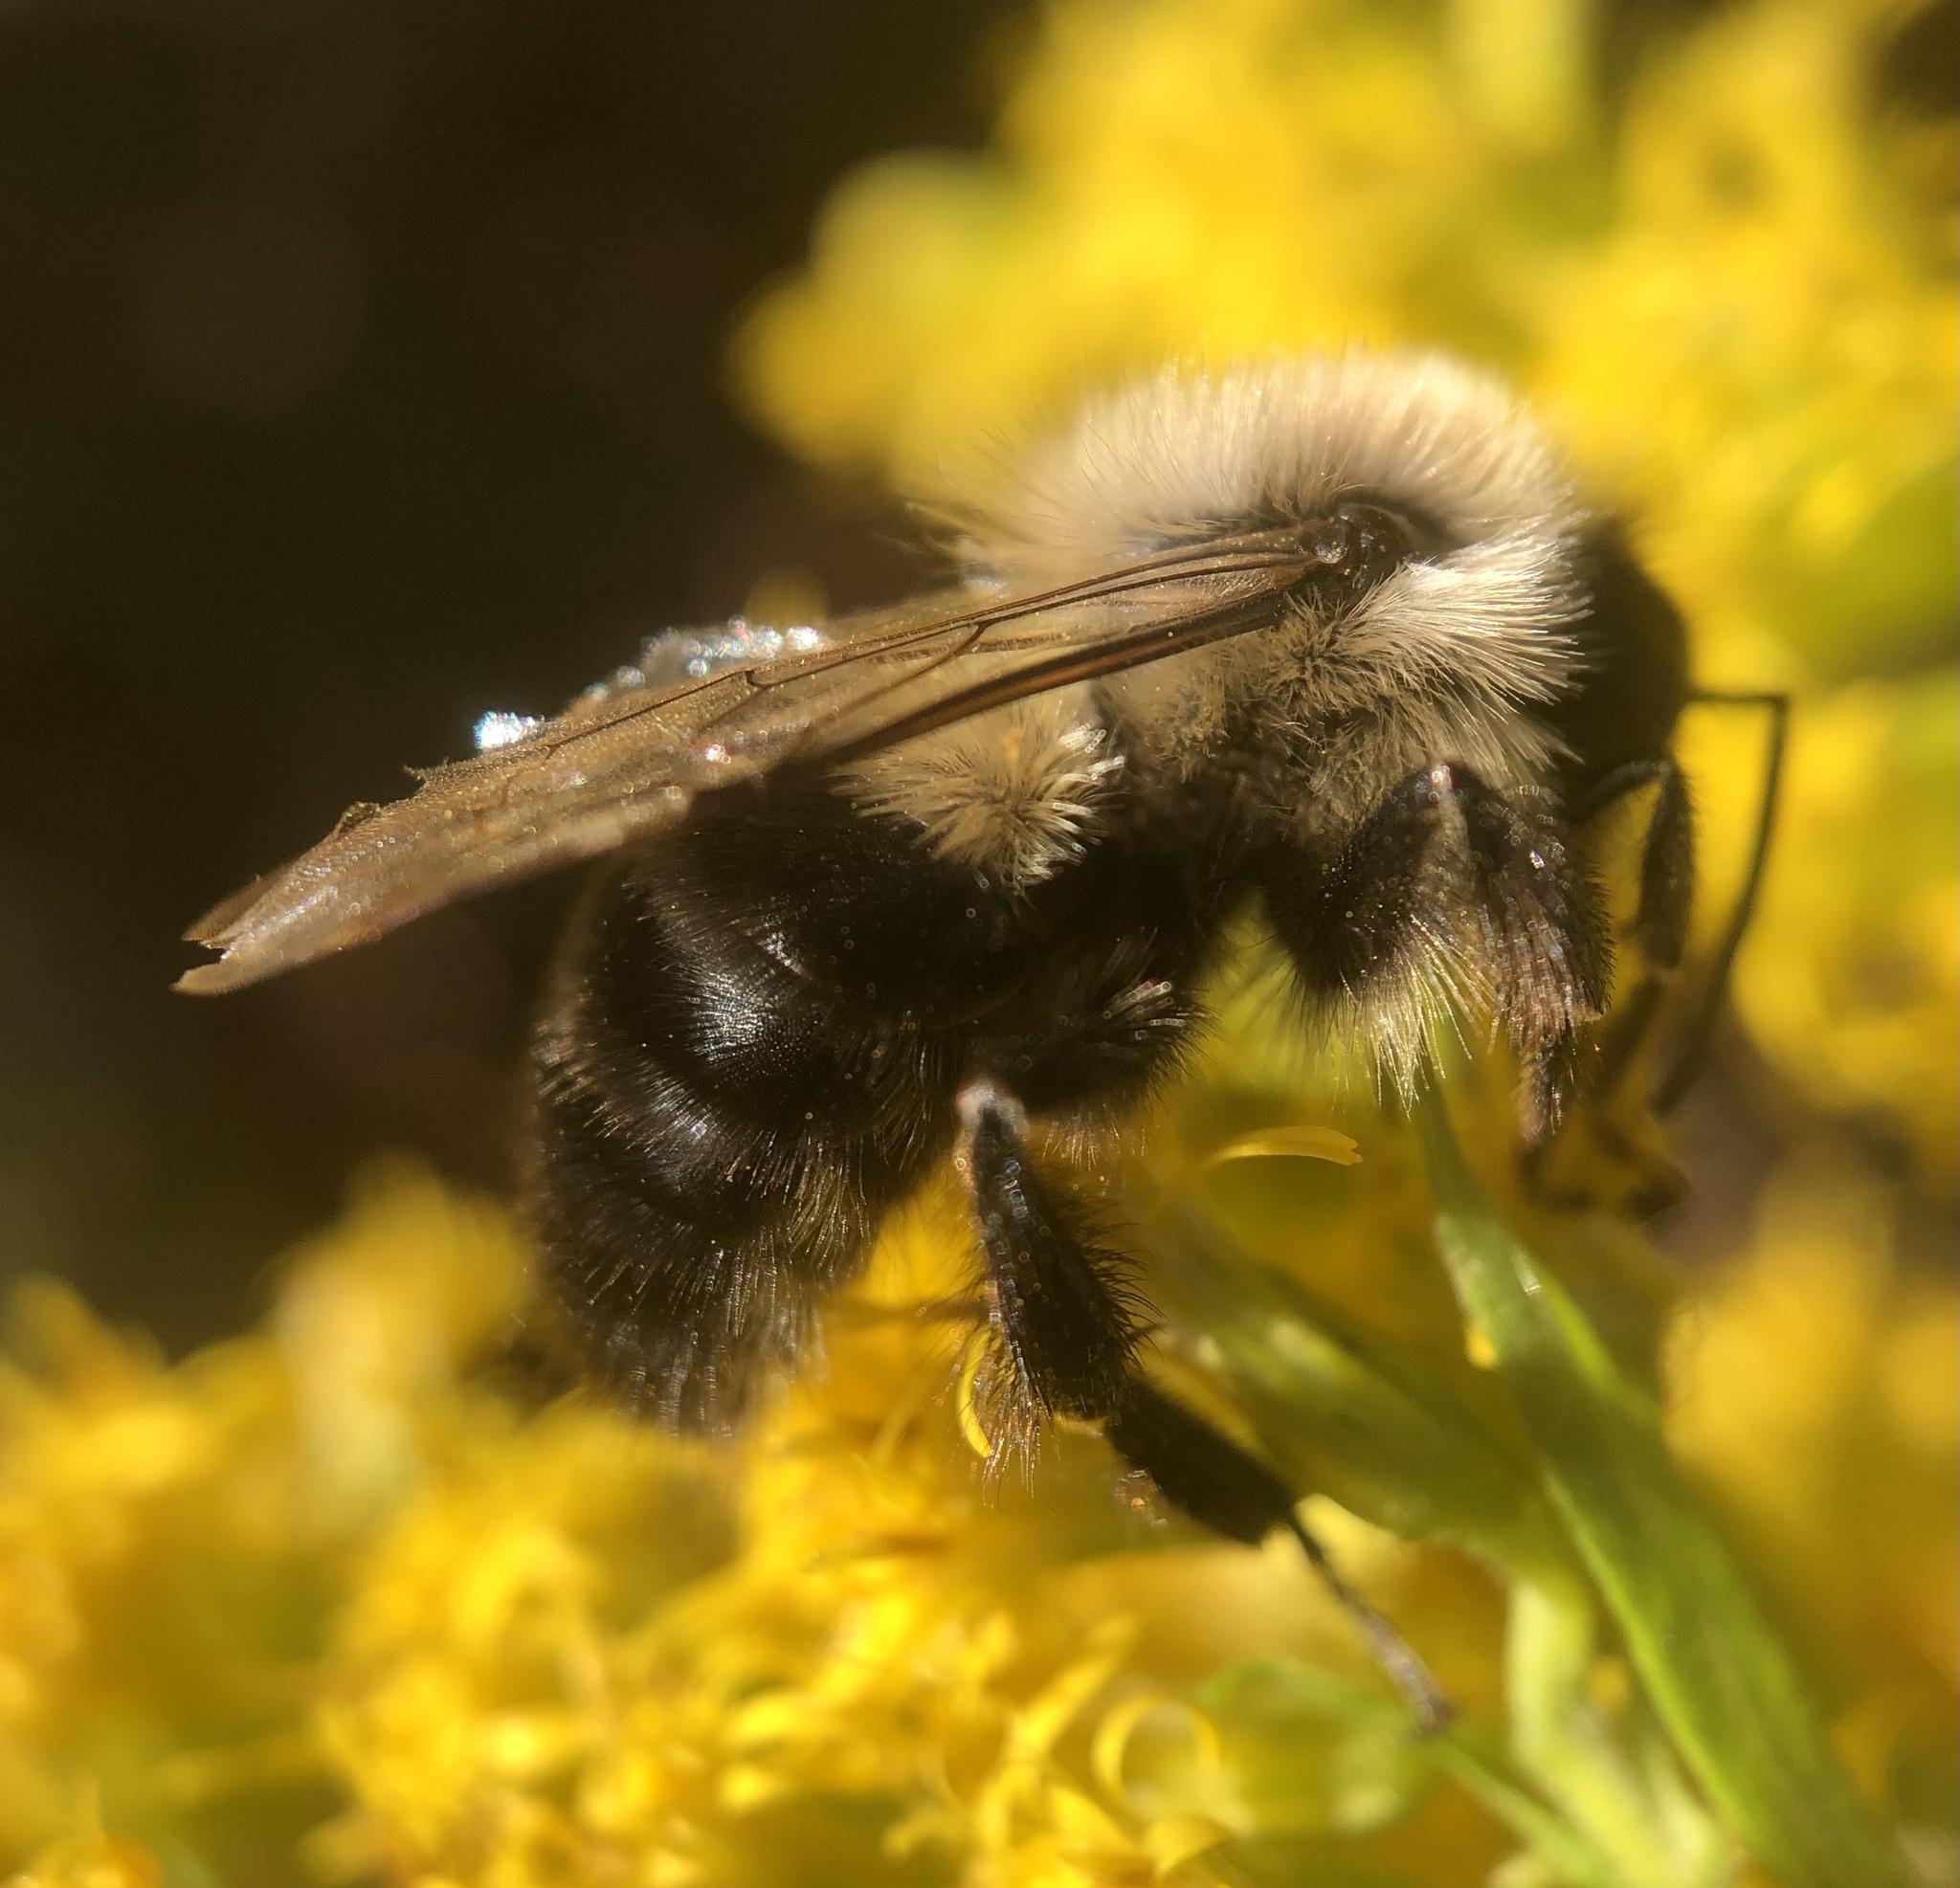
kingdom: Animalia
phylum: Arthropoda
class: Insecta
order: Hymenoptera
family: Apidae
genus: Bombus
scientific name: Bombus impatiens
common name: Common eastern bumble bee
